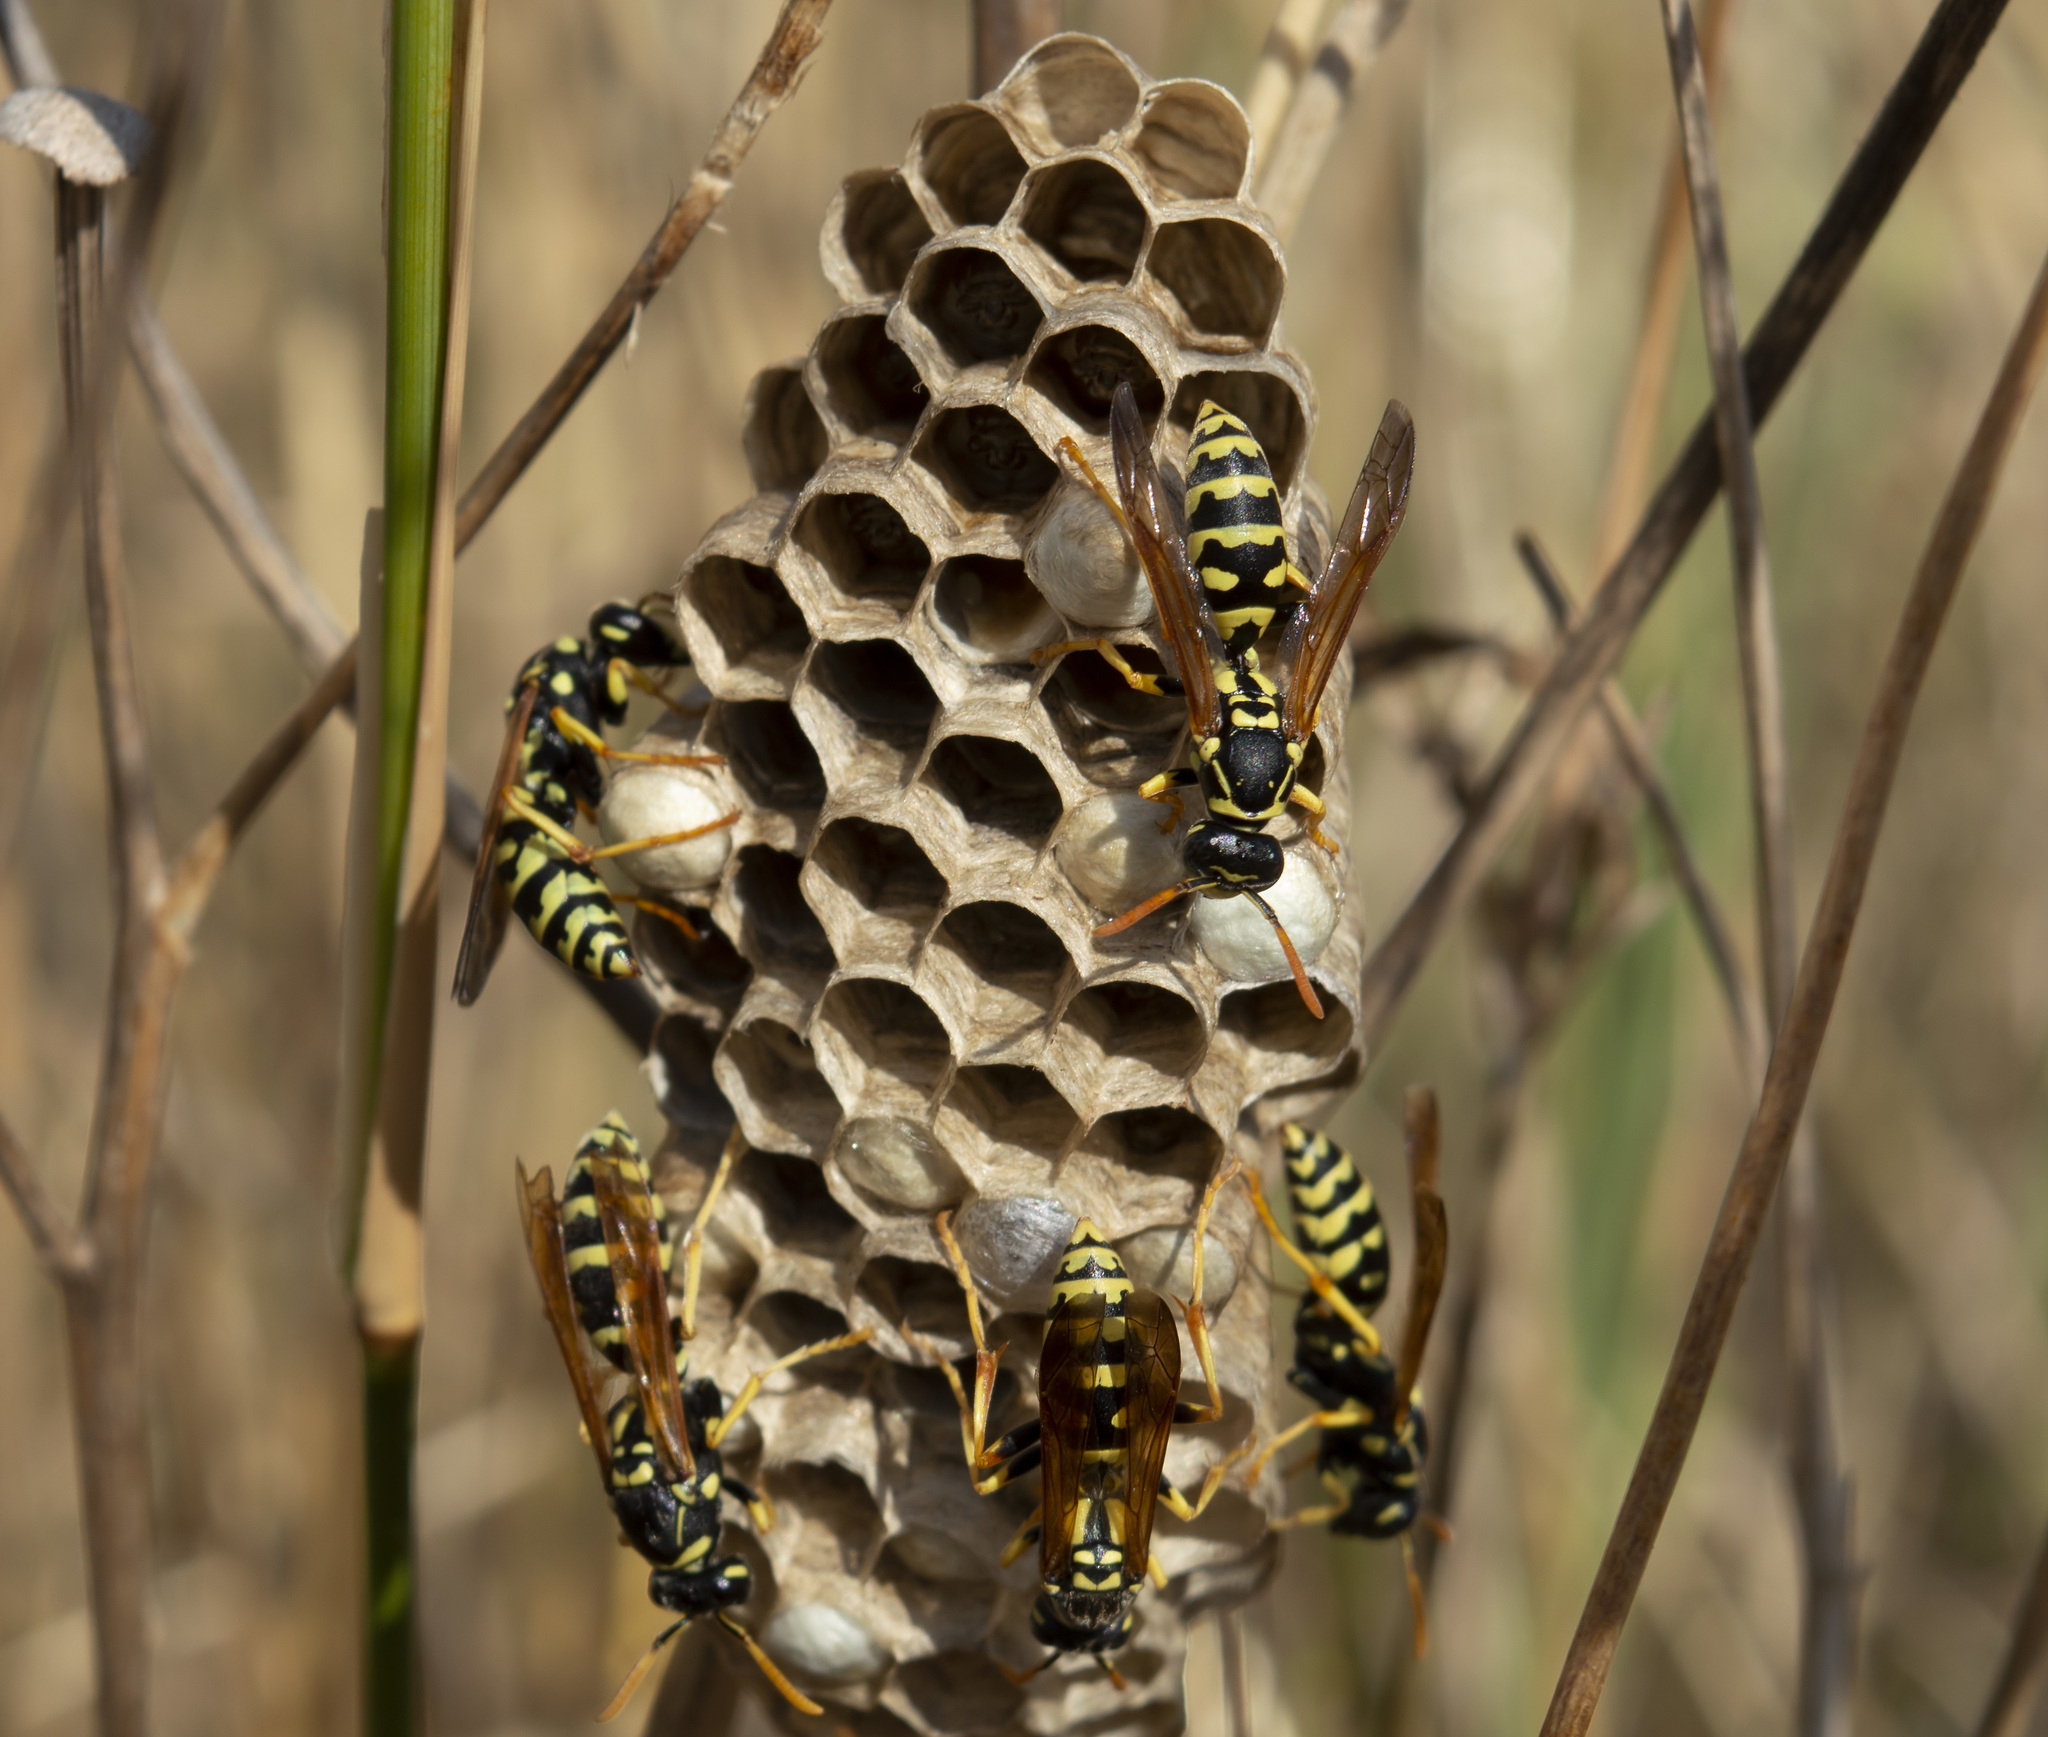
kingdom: Animalia
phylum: Arthropoda
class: Insecta
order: Hymenoptera
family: Eumenidae
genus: Polistes
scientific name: Polistes gallicus
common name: Paper wasp
